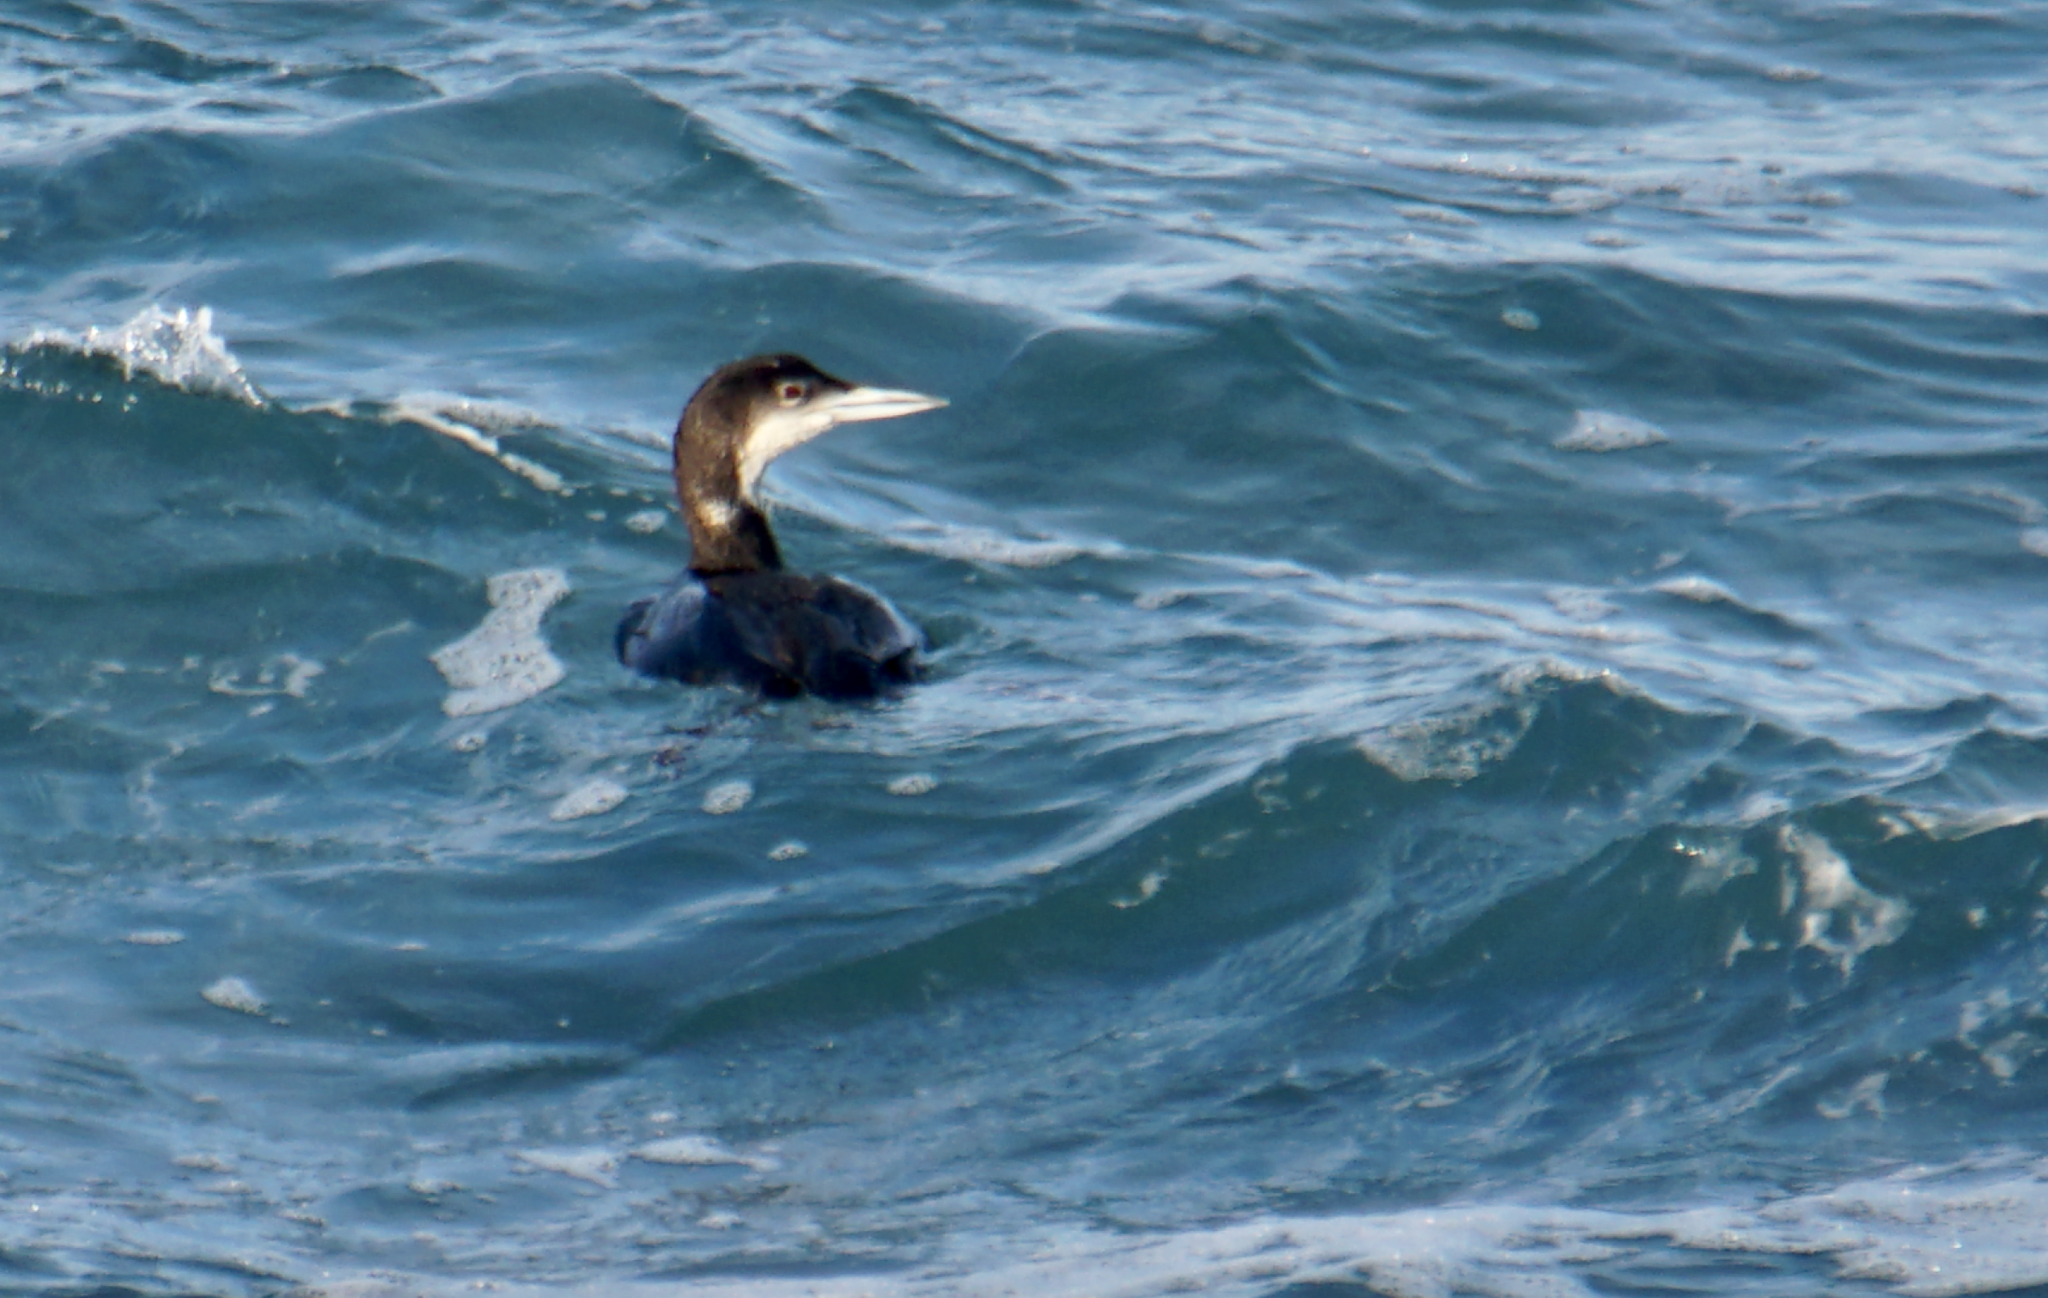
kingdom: Animalia
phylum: Chordata
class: Aves
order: Gaviiformes
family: Gaviidae
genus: Gavia
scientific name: Gavia immer
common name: Common loon
